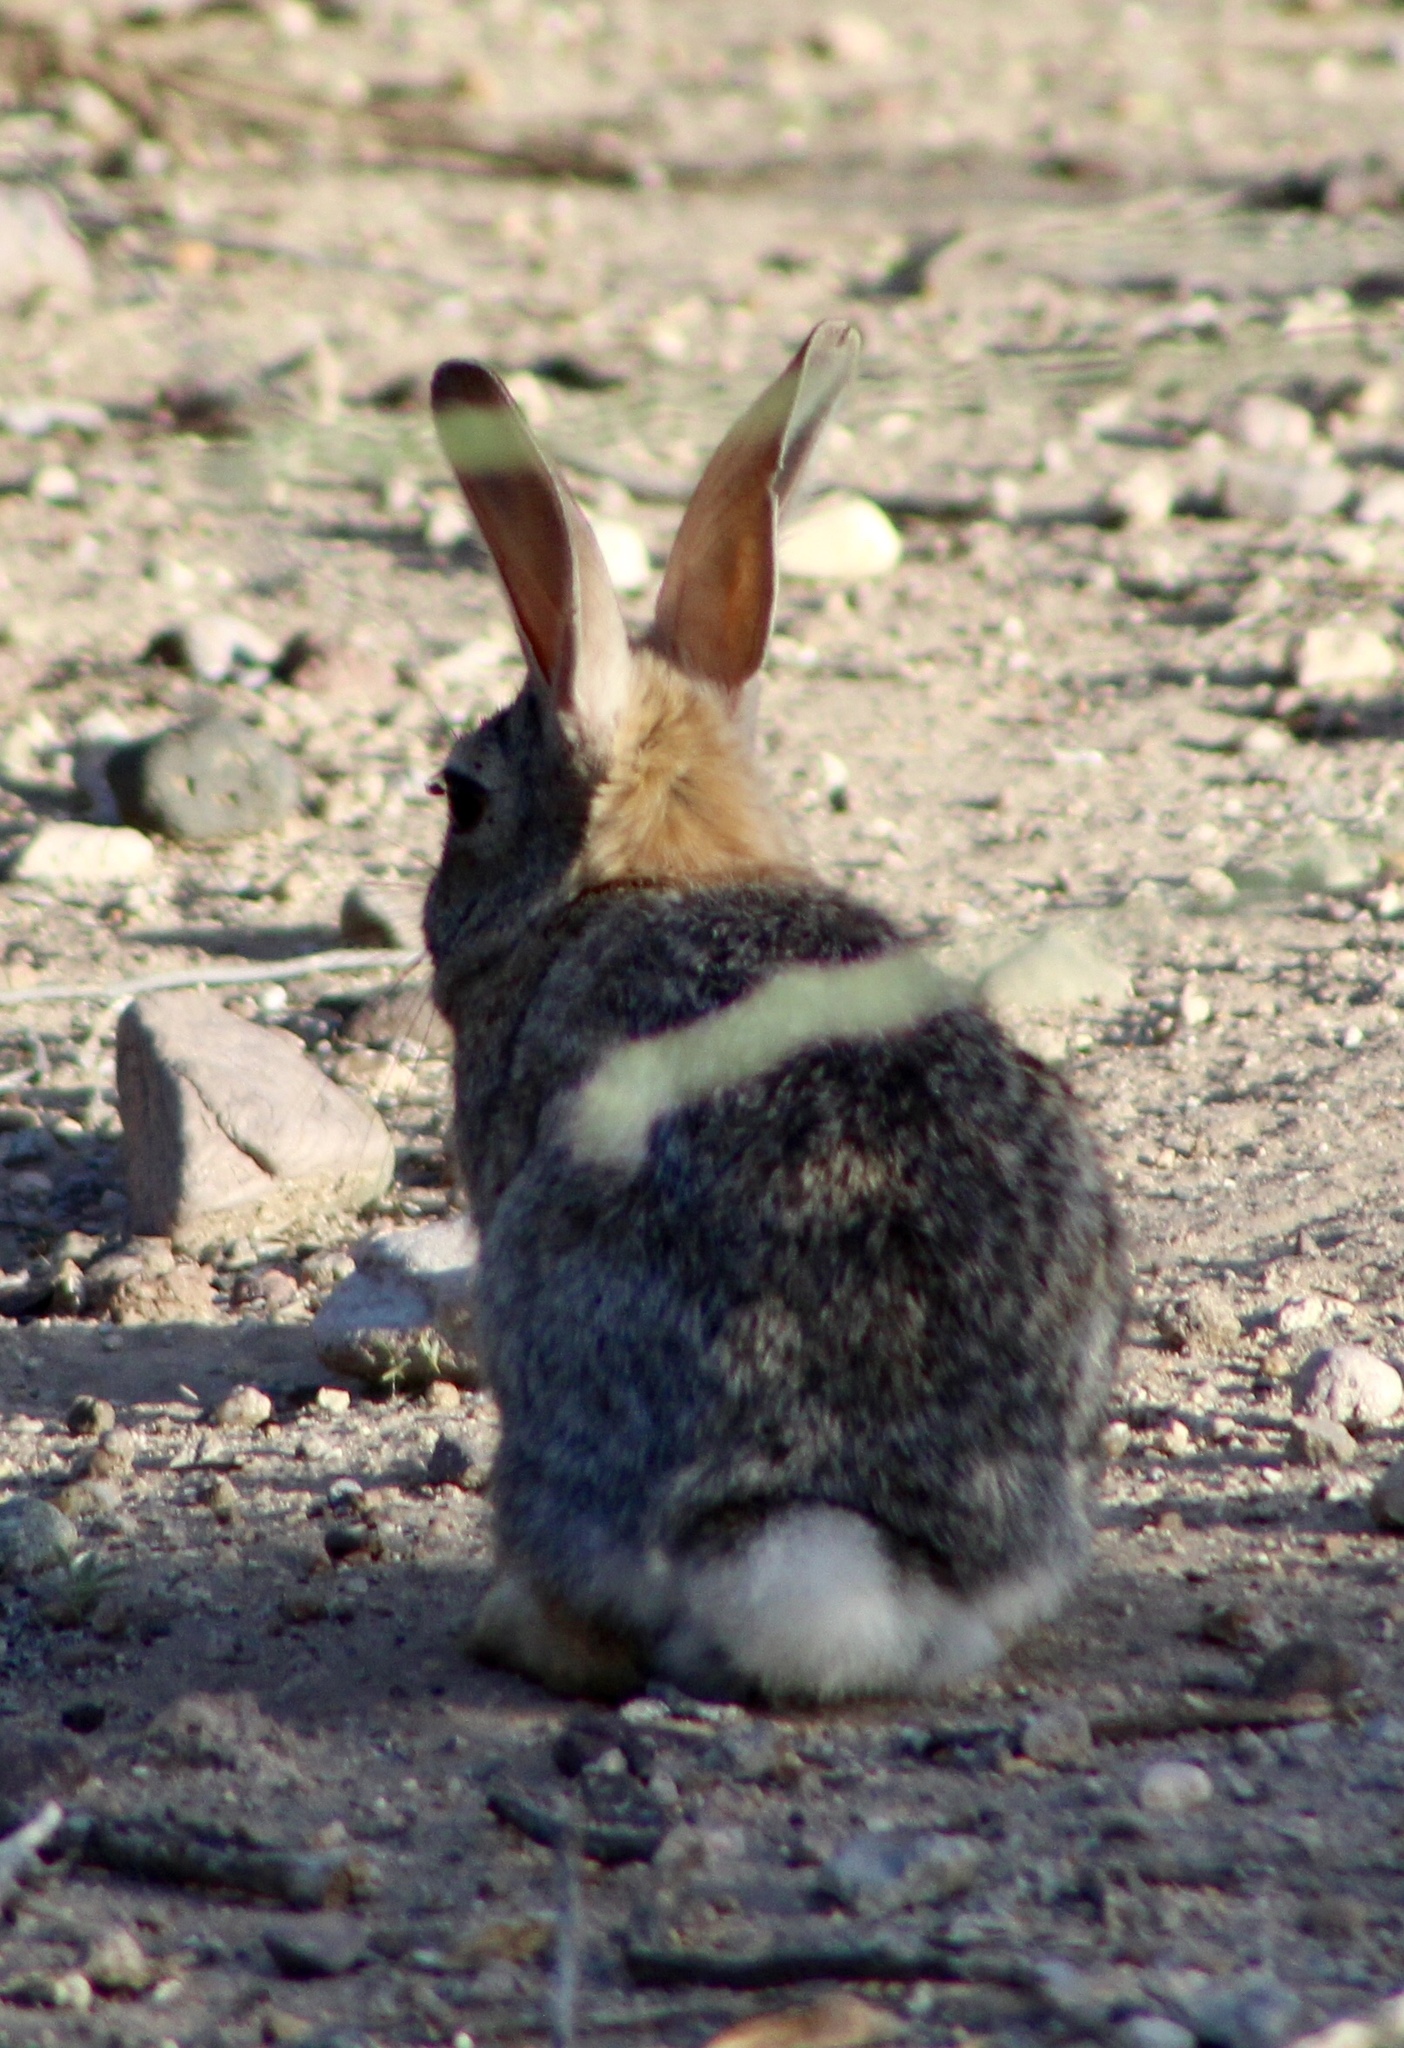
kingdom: Animalia
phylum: Chordata
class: Mammalia
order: Lagomorpha
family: Leporidae
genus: Sylvilagus
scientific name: Sylvilagus audubonii
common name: Desert cottontail
